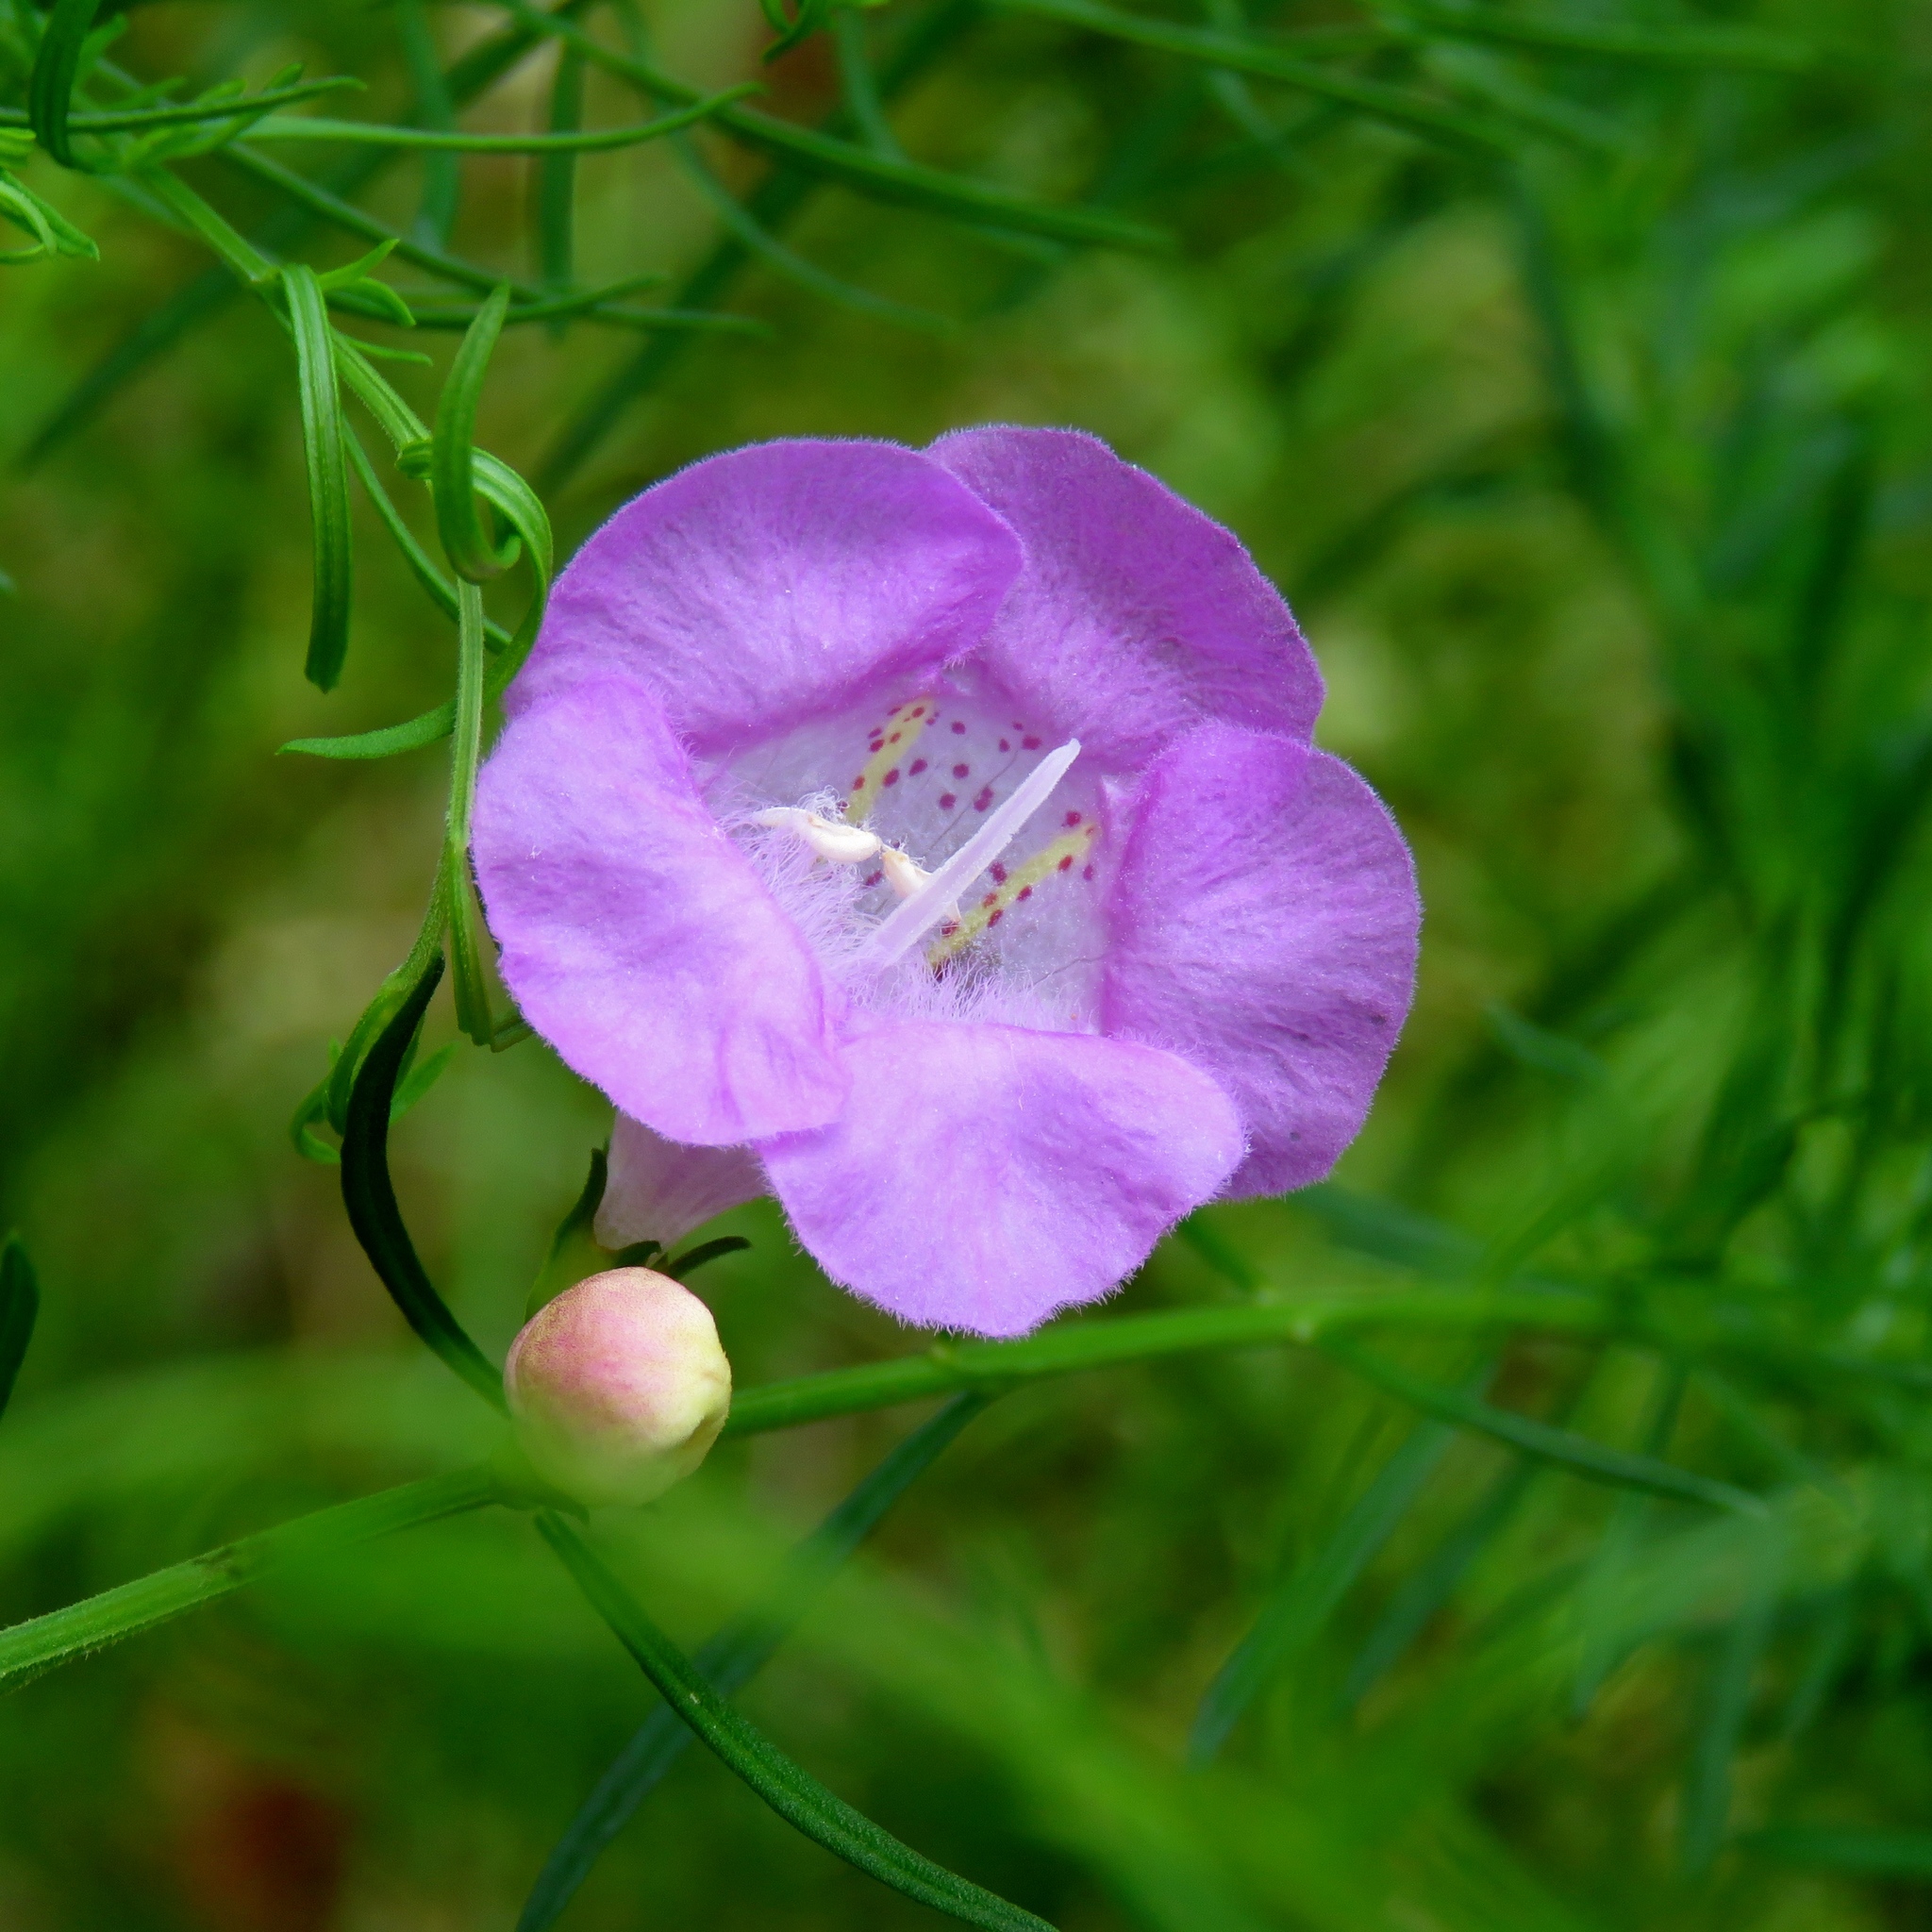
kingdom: Plantae
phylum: Tracheophyta
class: Magnoliopsida
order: Lamiales
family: Orobanchaceae
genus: Agalinis
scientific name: Agalinis fasciculata
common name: Beach false foxglove
